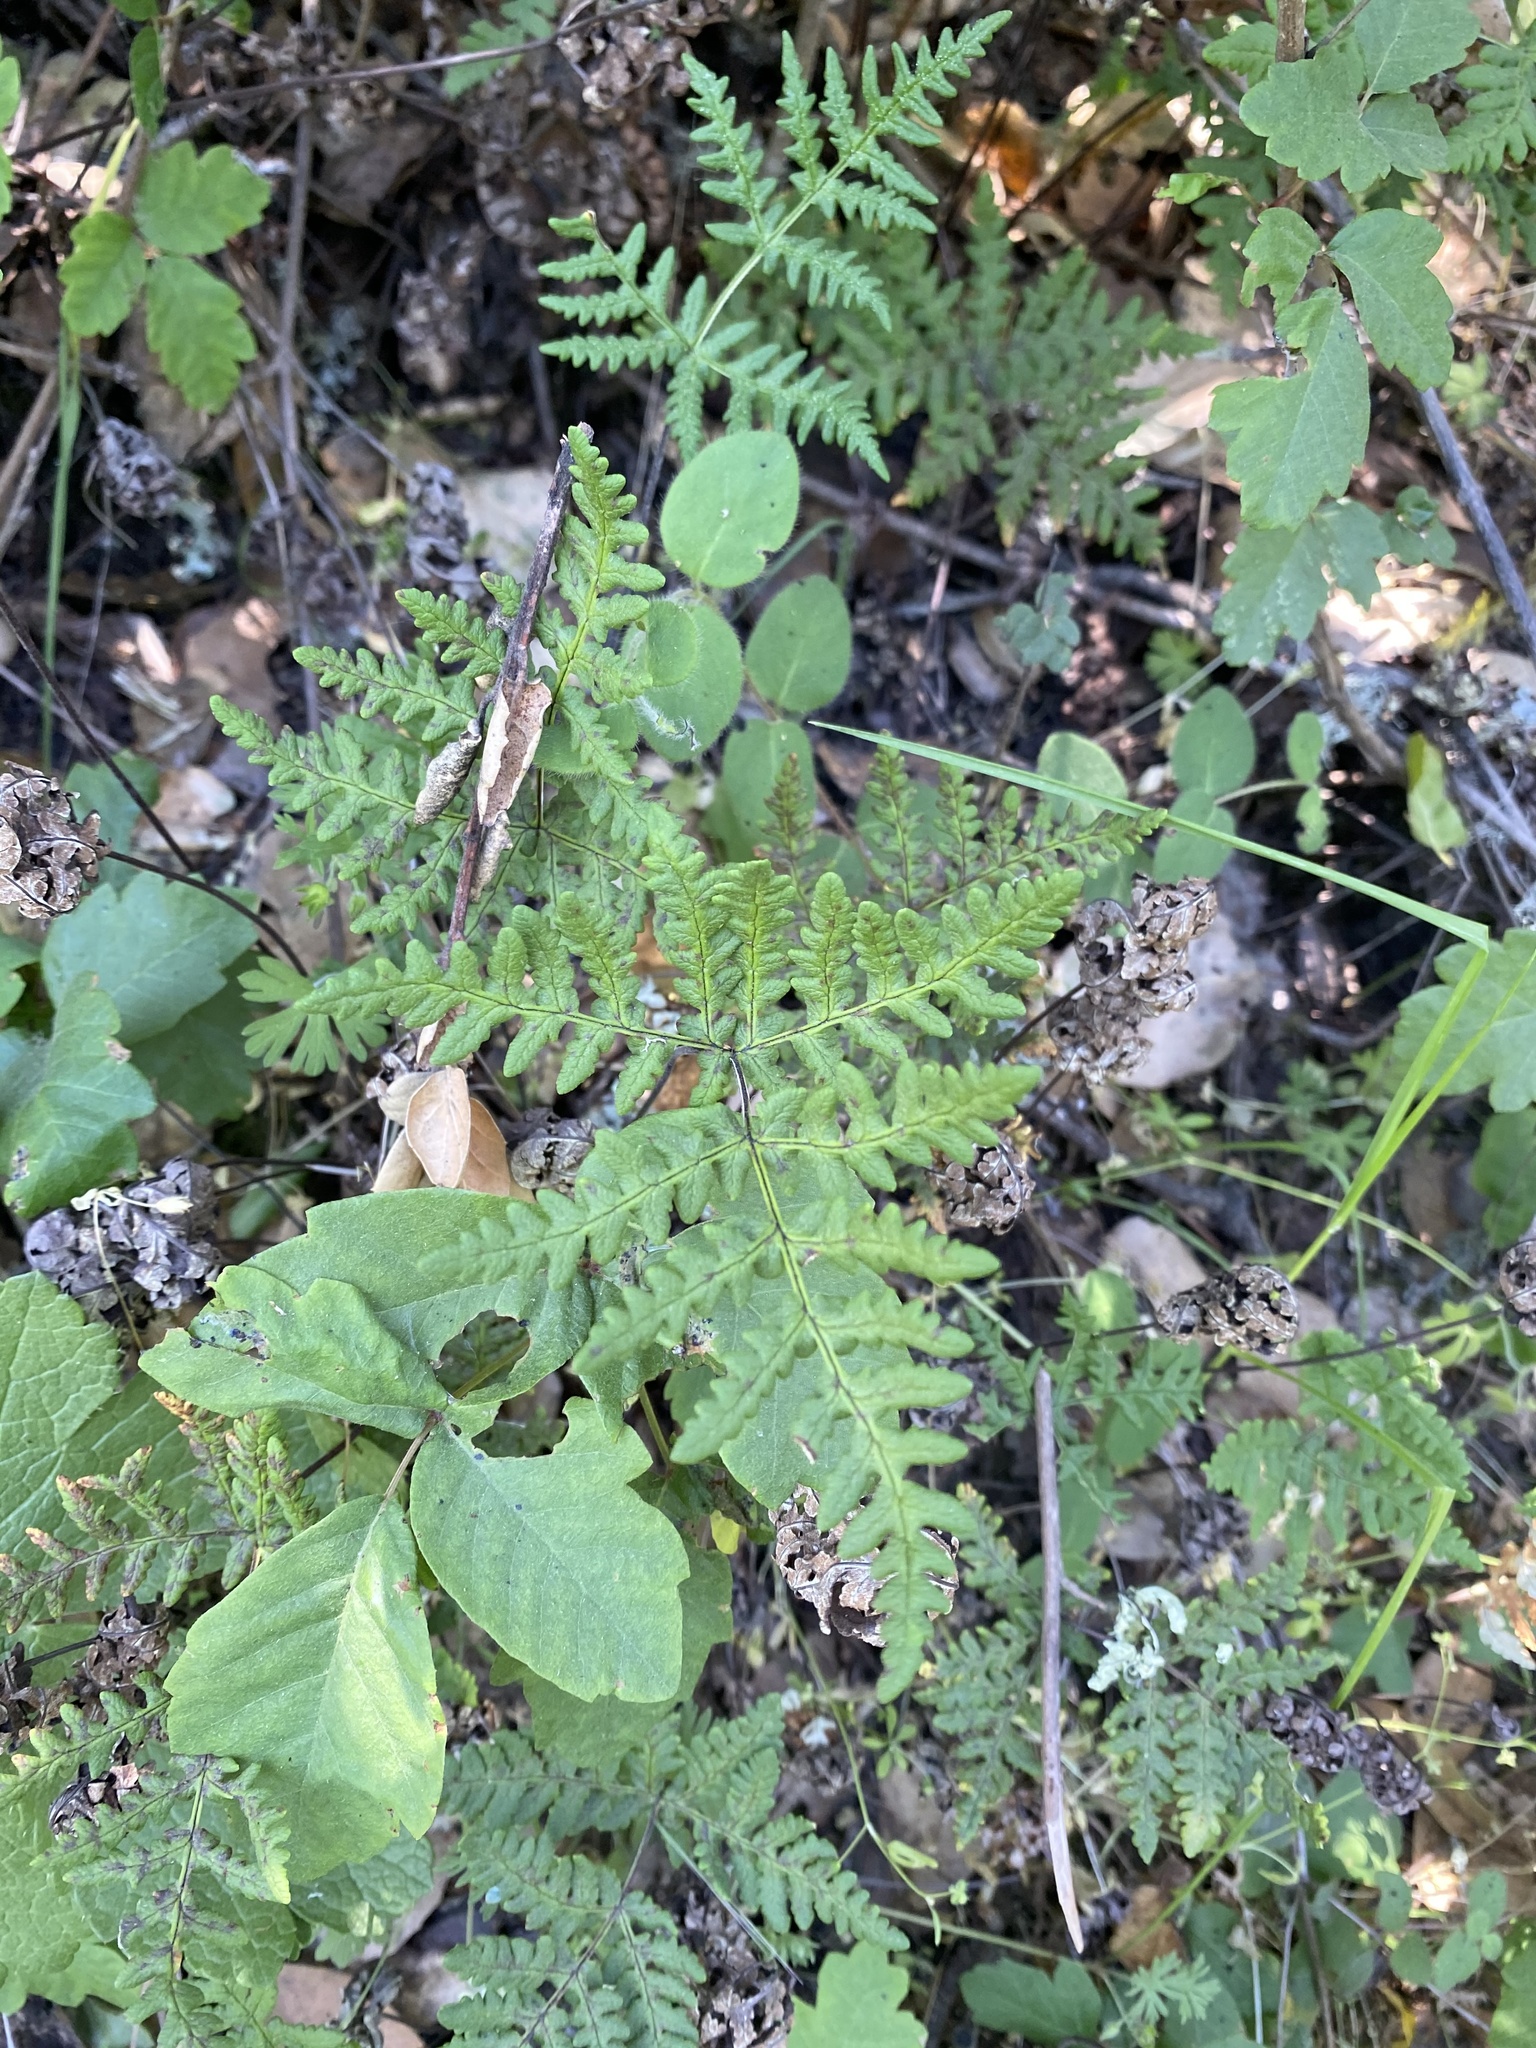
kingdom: Plantae
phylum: Tracheophyta
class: Polypodiopsida
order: Polypodiales
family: Pteridaceae
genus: Pentagramma
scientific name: Pentagramma triangularis
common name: Gold fern
